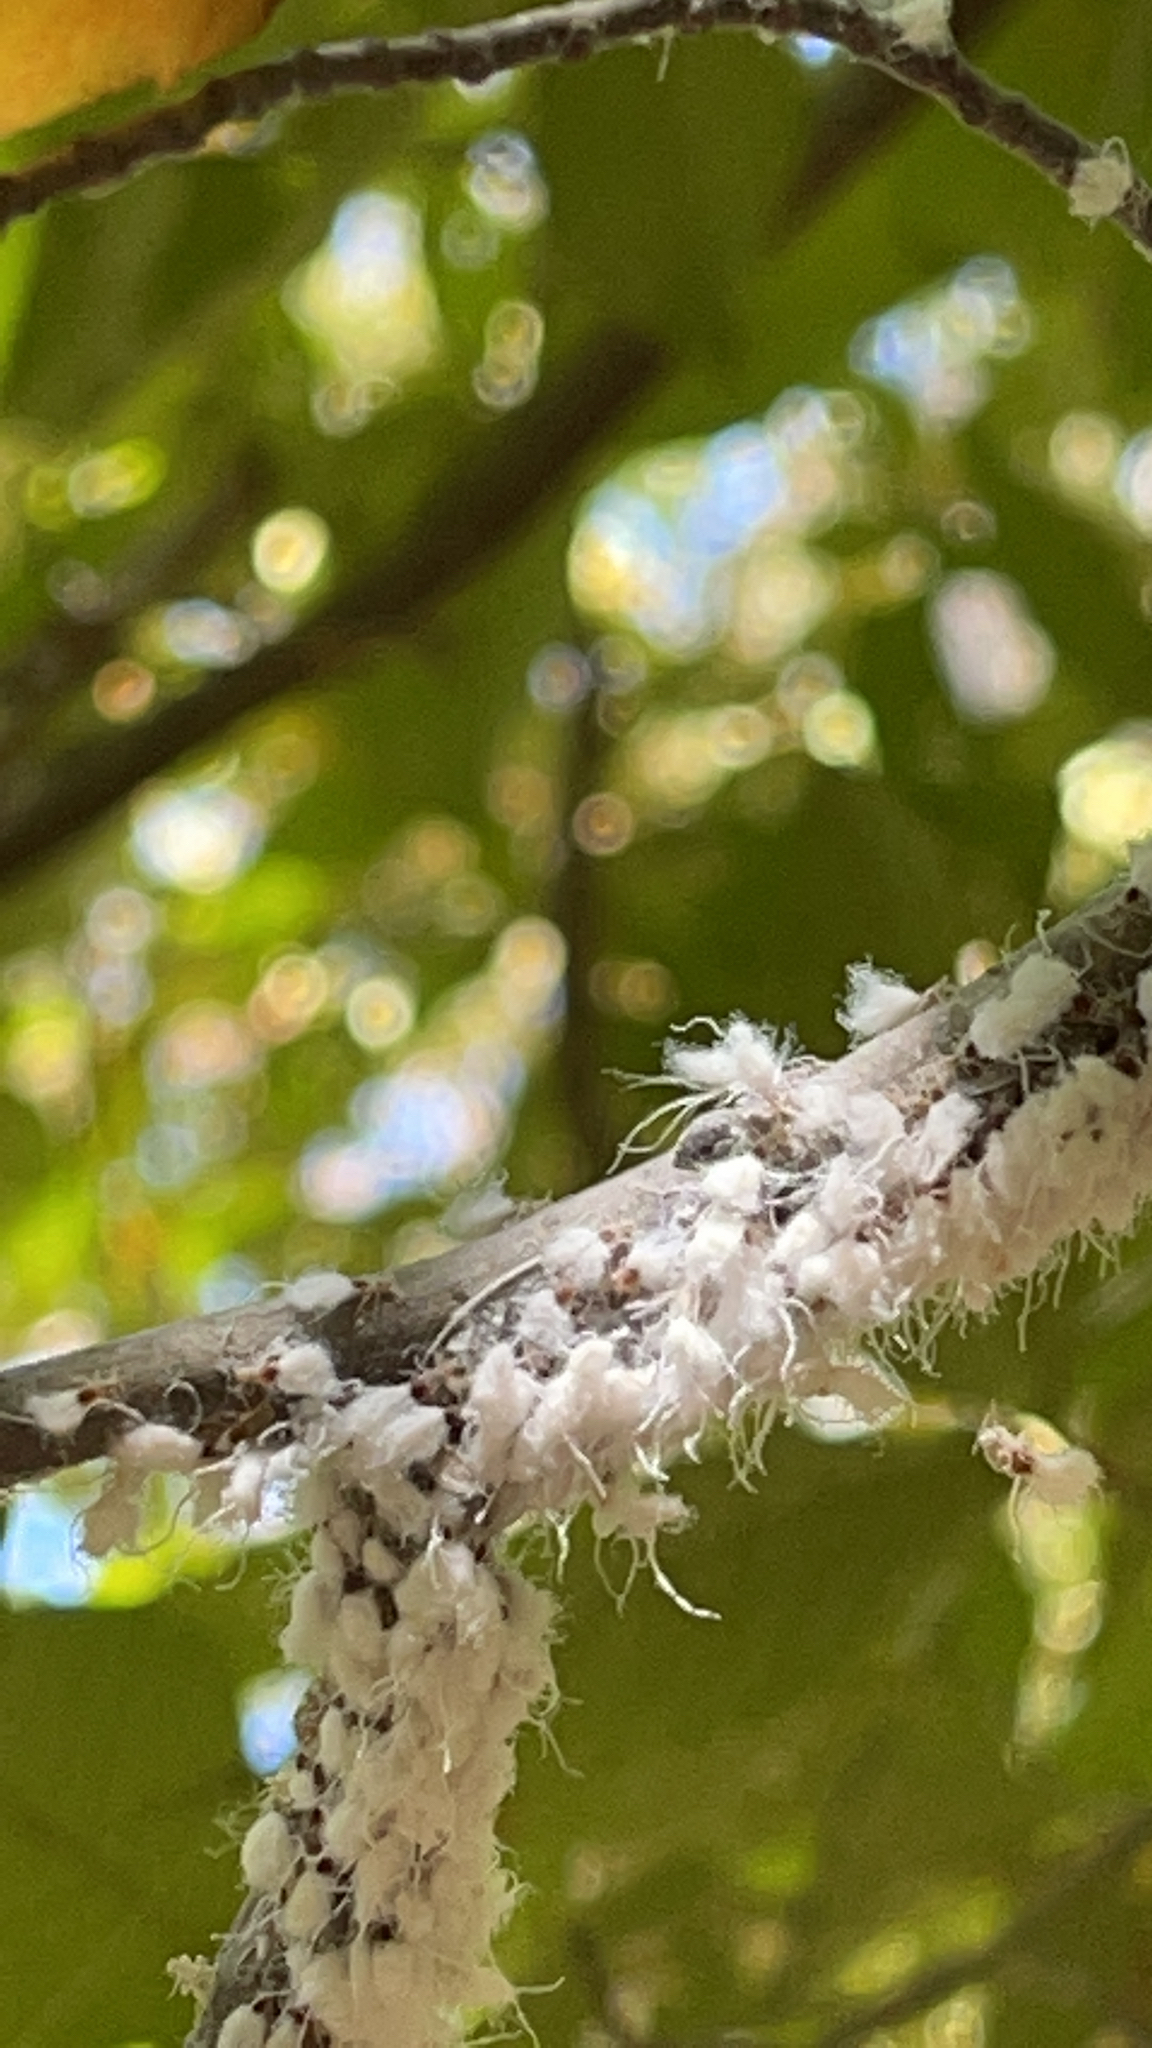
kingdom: Animalia
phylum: Arthropoda
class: Insecta
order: Hemiptera
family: Aphididae
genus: Grylloprociphilus
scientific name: Grylloprociphilus imbricator
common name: Beech blight aphid
